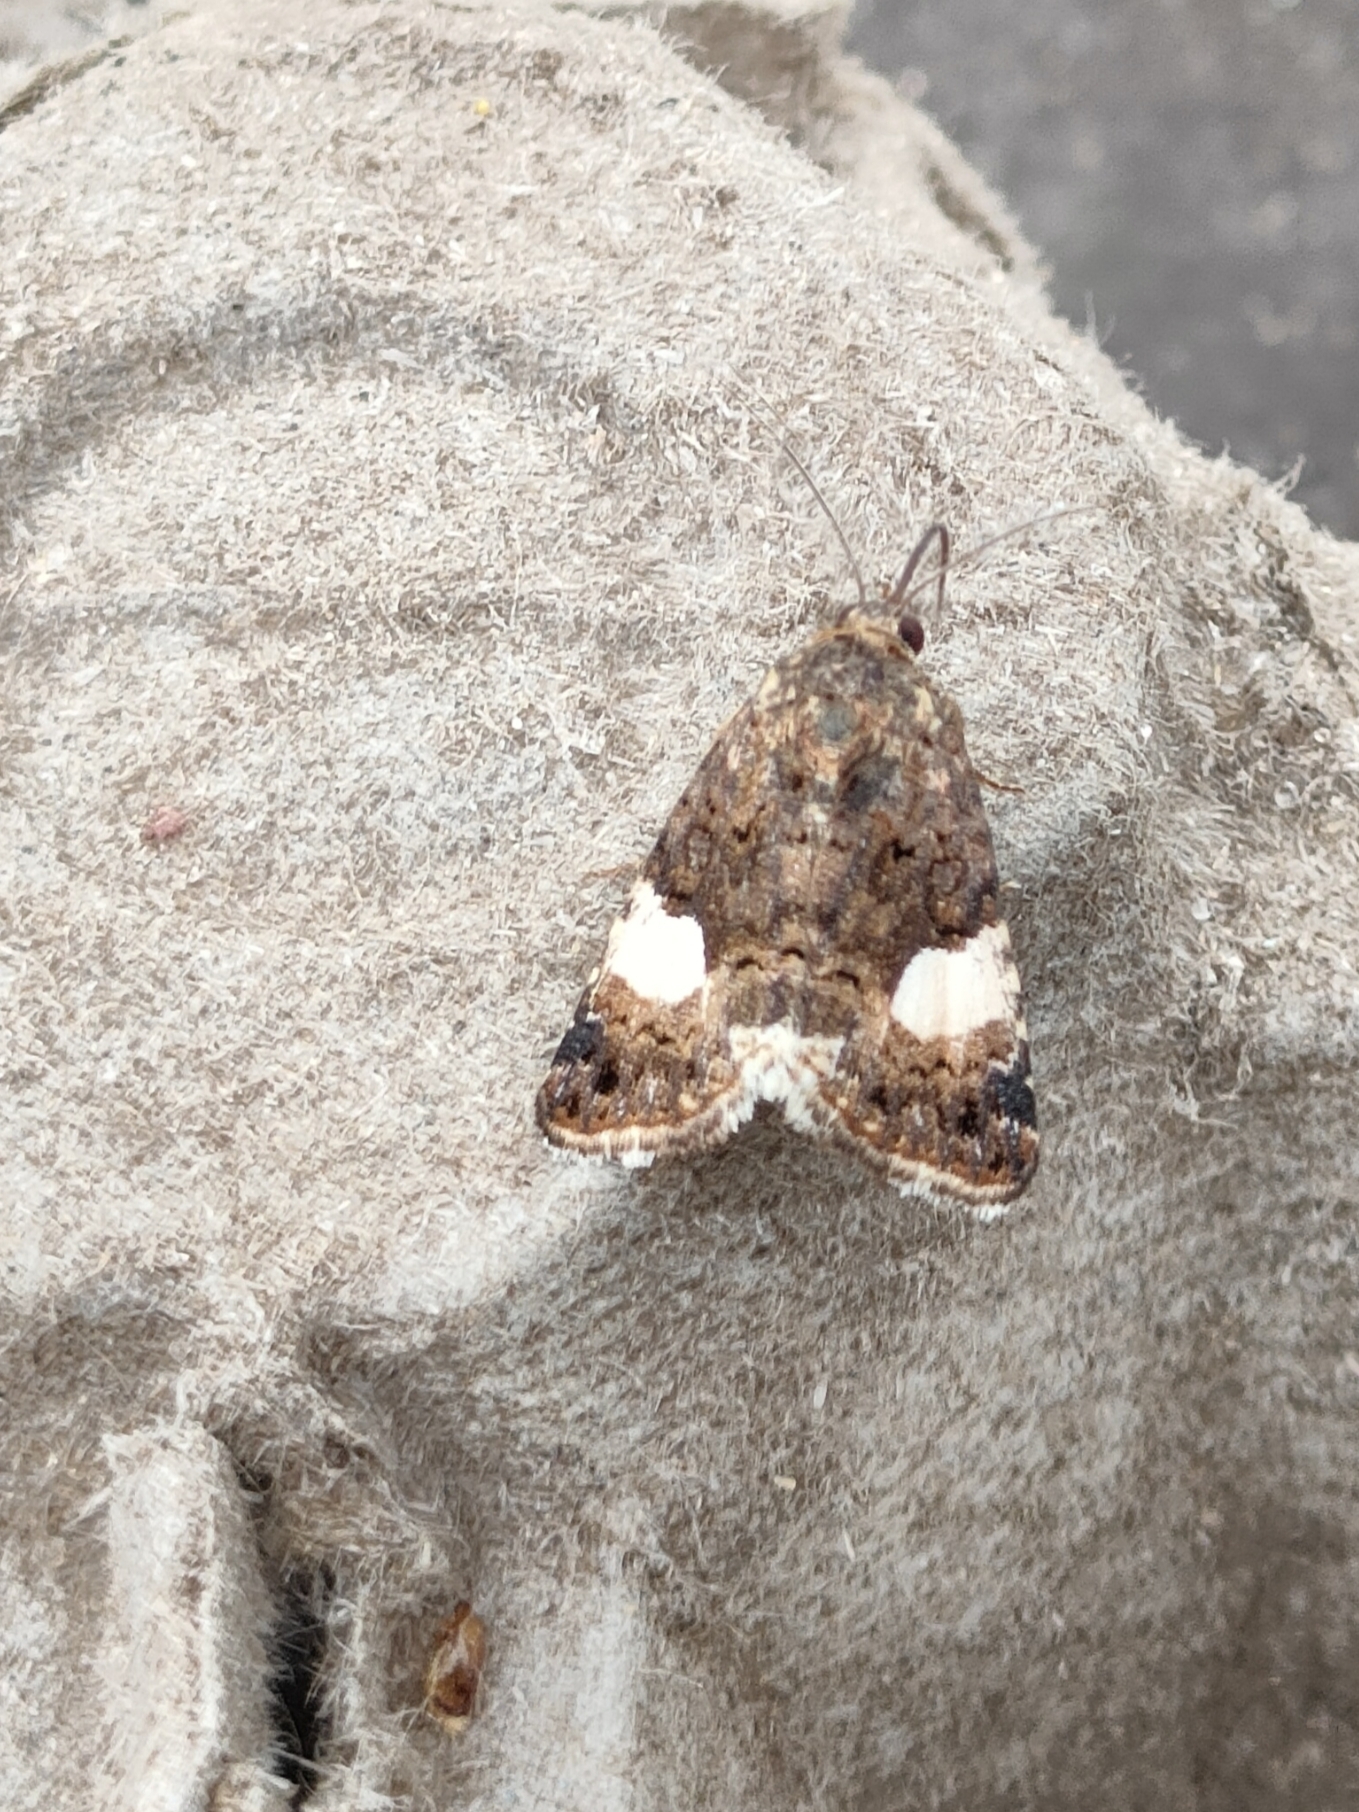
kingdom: Animalia
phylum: Arthropoda
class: Insecta
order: Lepidoptera
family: Erebidae
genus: Tyta
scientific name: Tyta luctuosa
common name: Four-spotted
